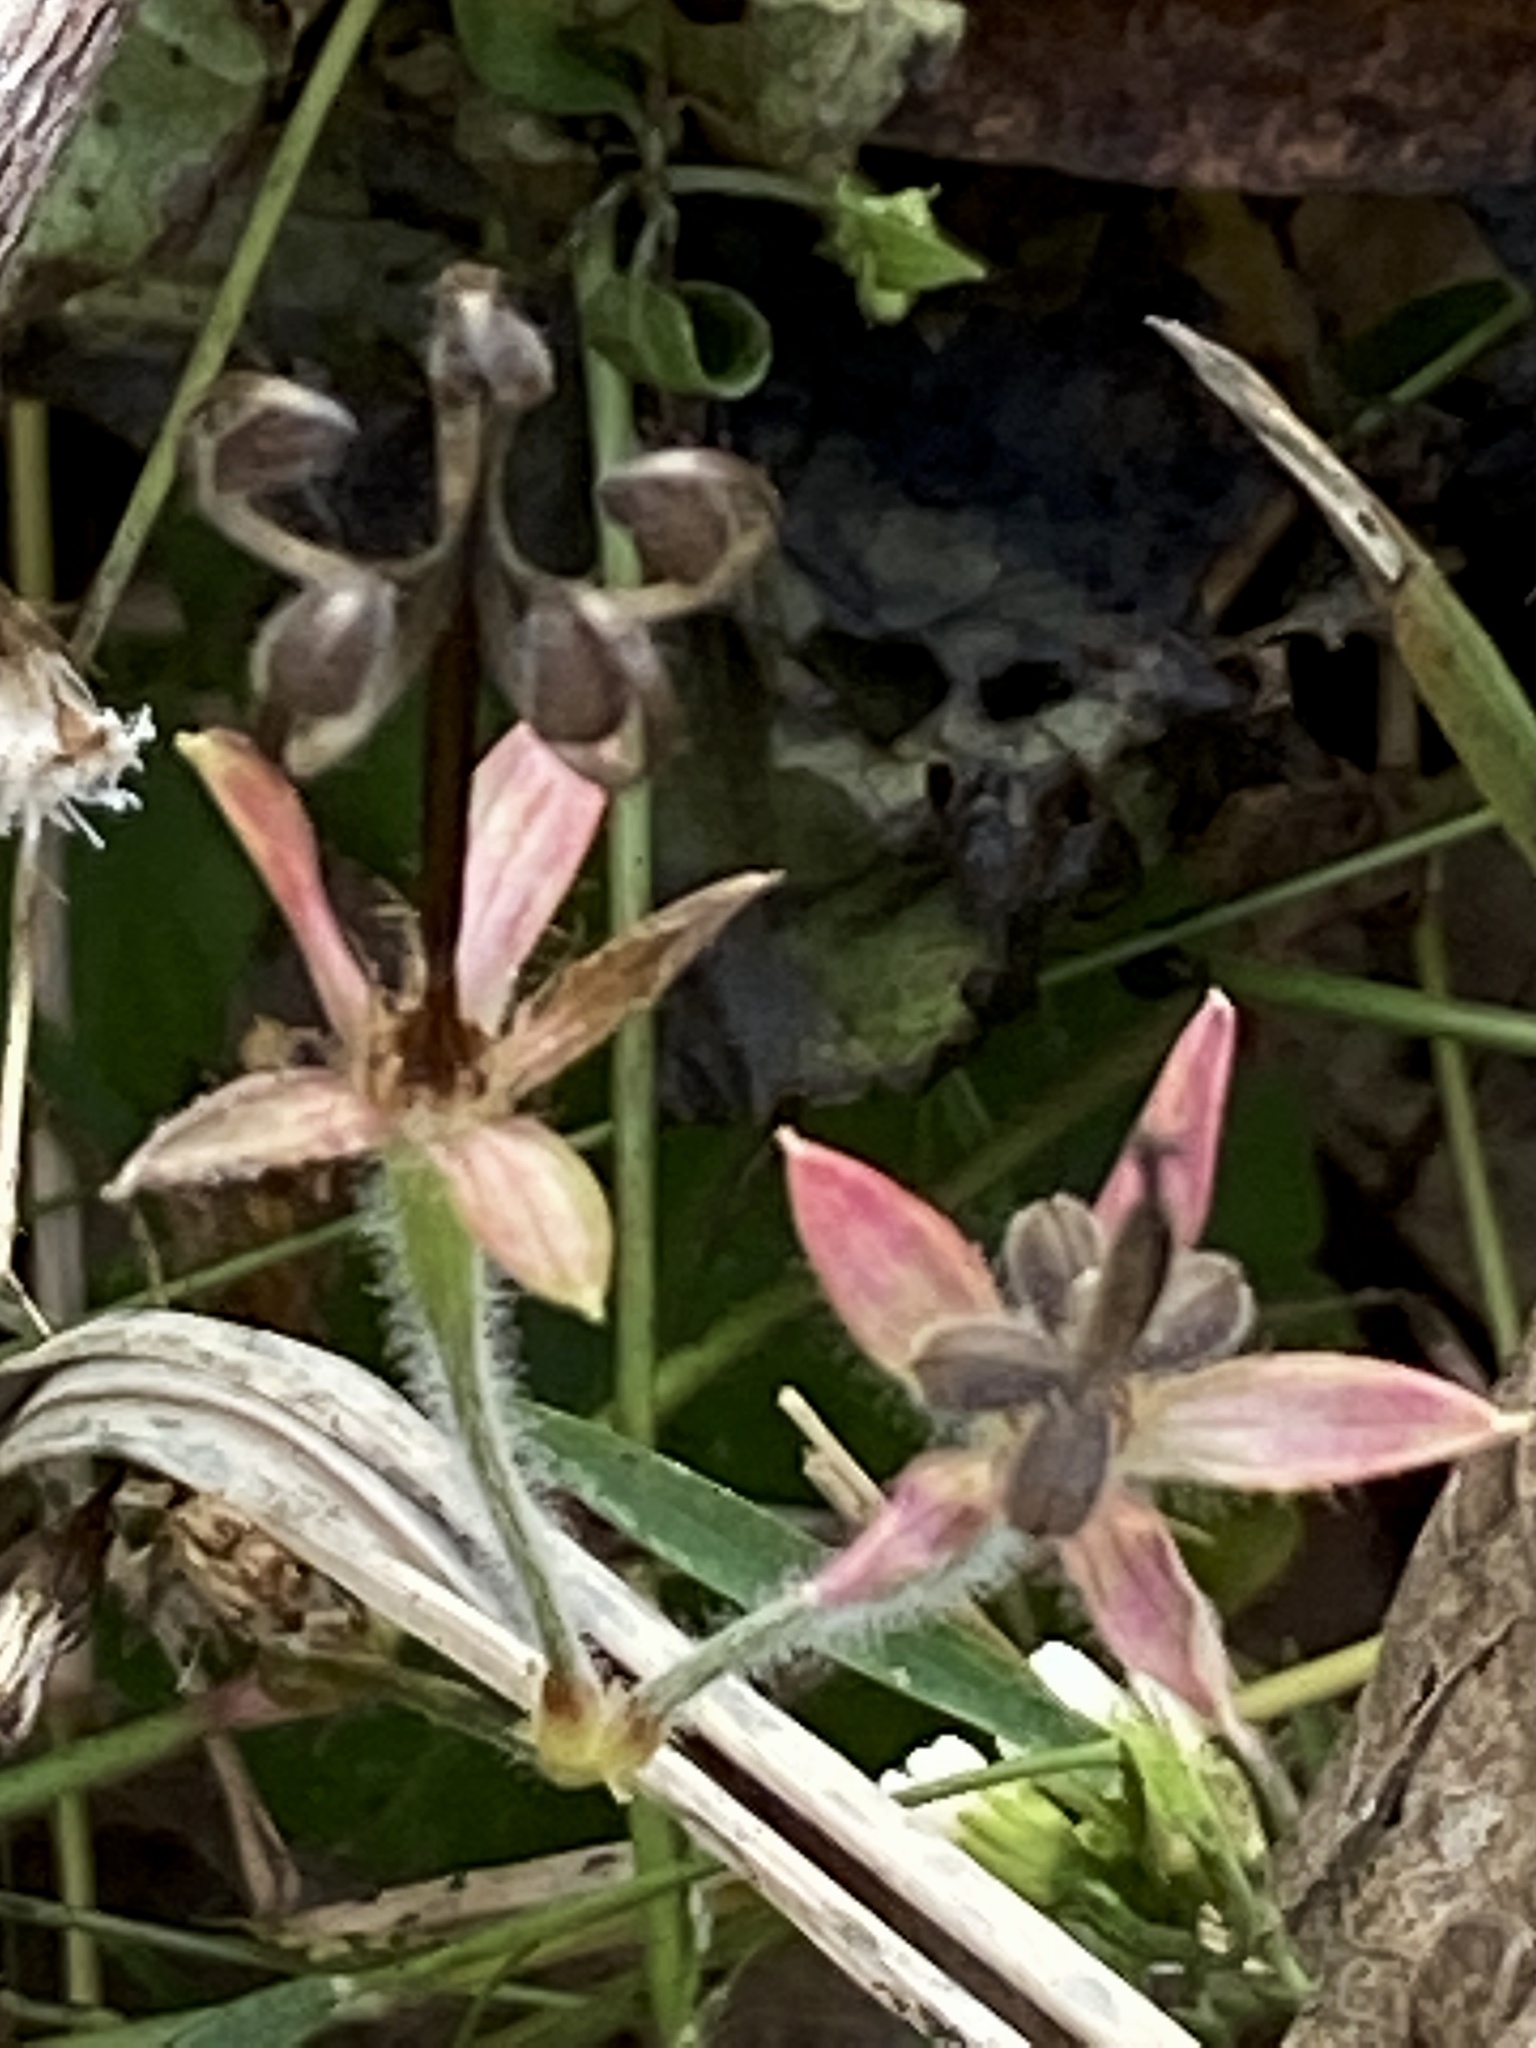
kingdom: Plantae
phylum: Tracheophyta
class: Magnoliopsida
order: Geraniales
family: Geraniaceae
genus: Geranium
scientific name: Geranium thunbergii
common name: Dewdrop crane's-bill
